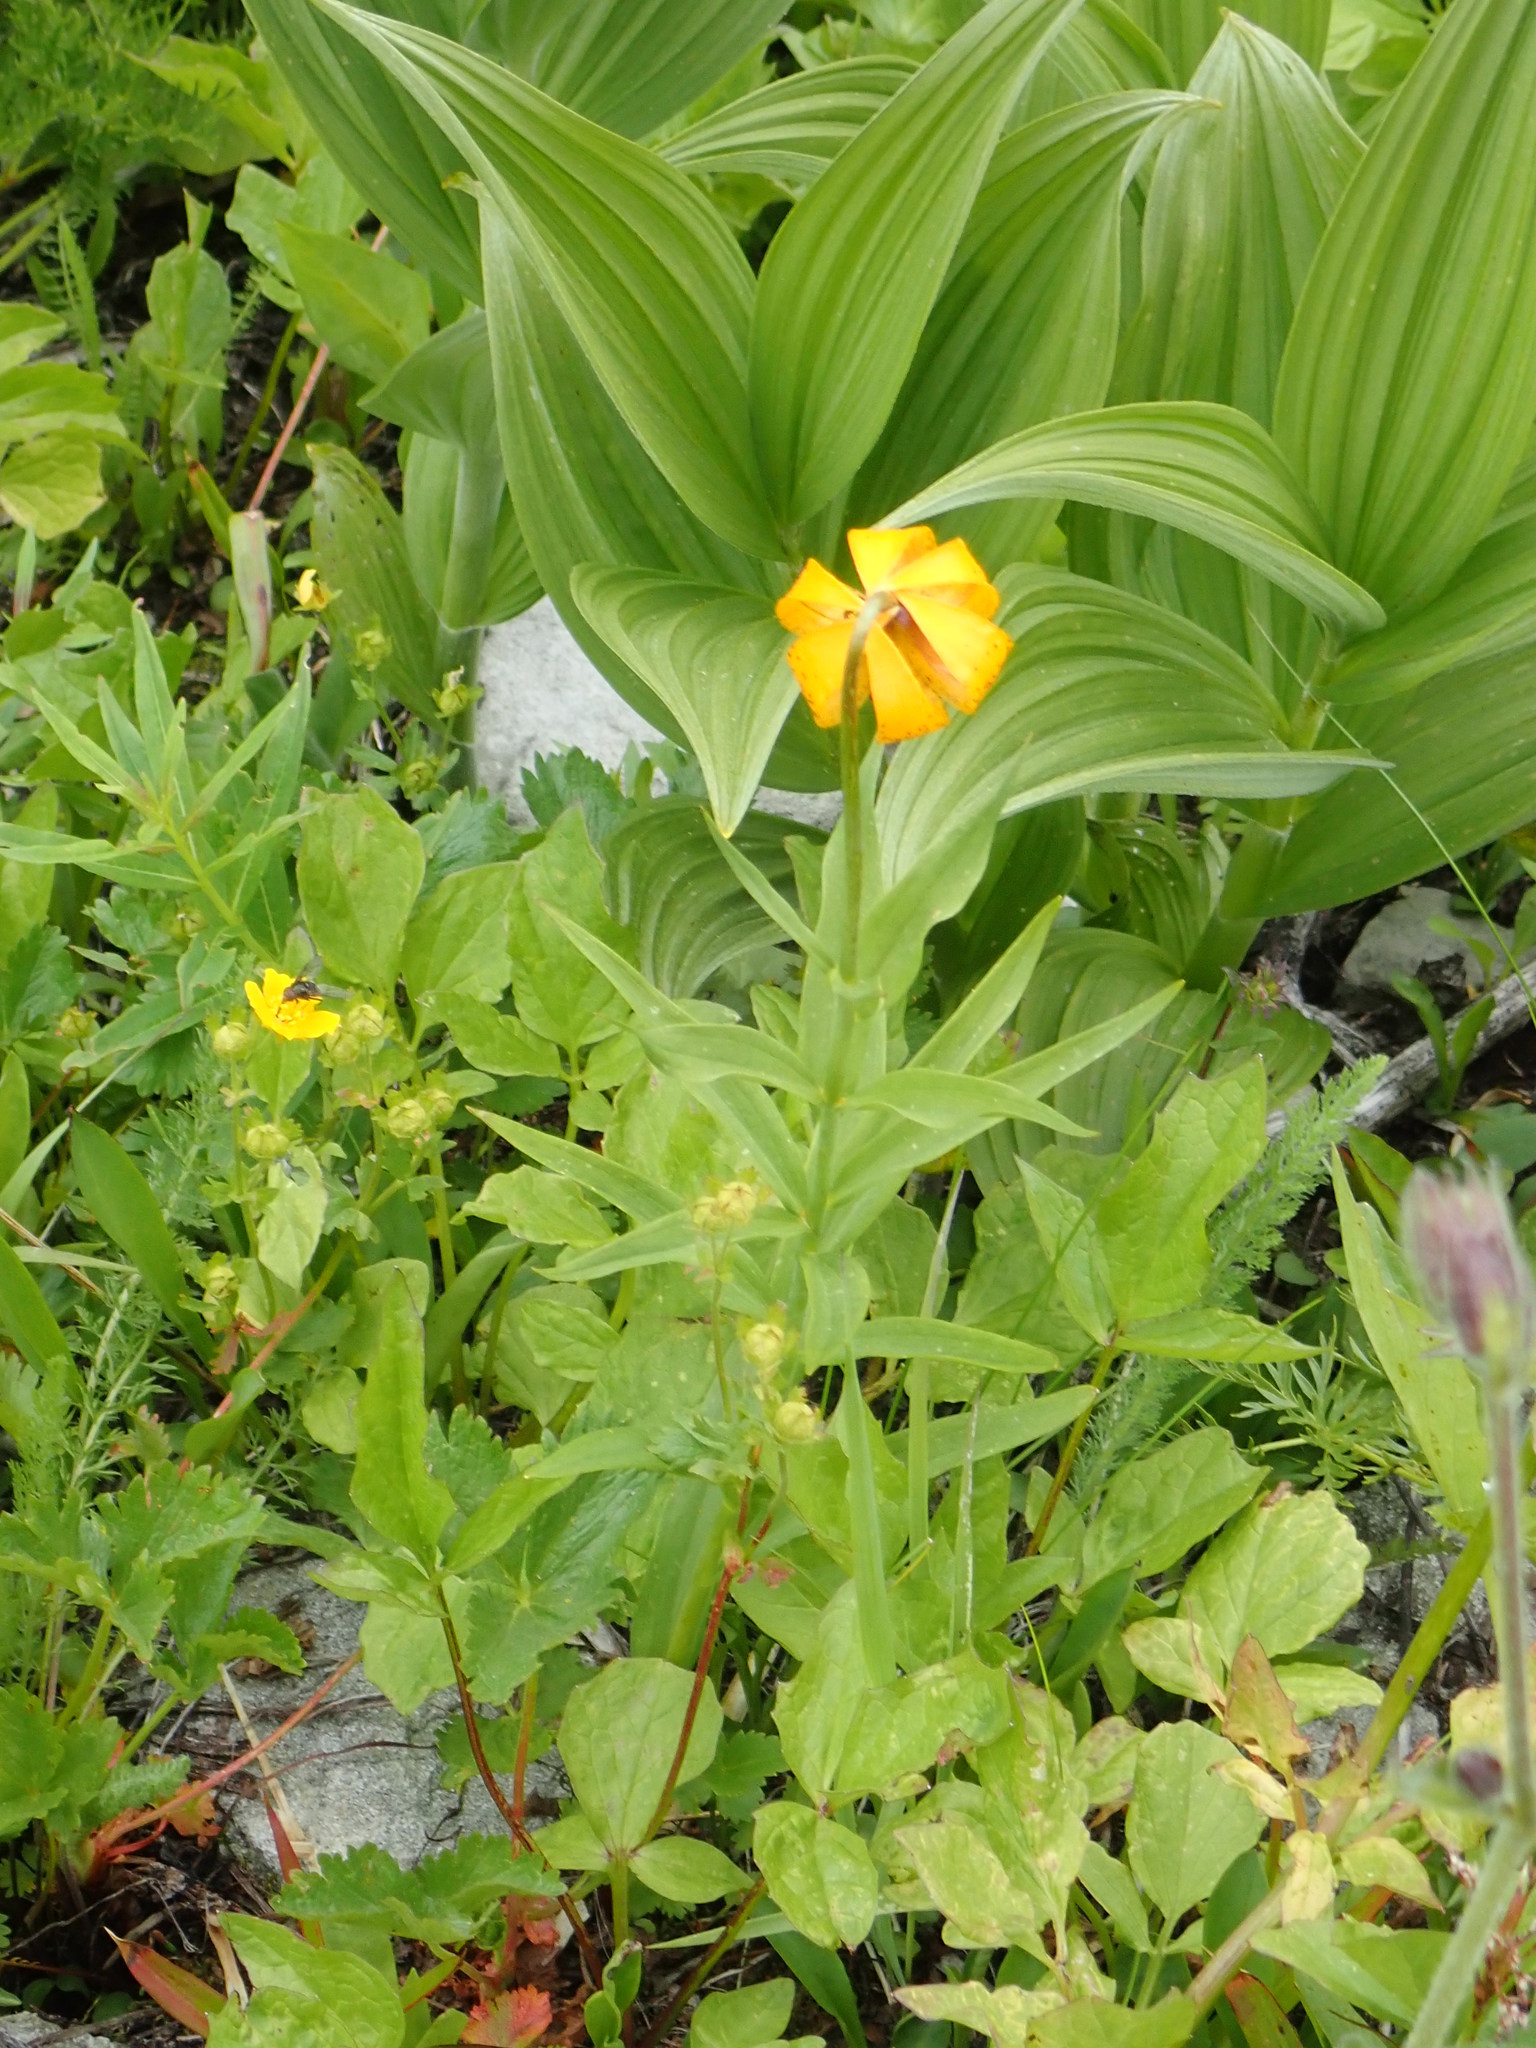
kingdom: Plantae
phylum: Tracheophyta
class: Liliopsida
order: Liliales
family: Liliaceae
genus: Lilium
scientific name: Lilium columbianum
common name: Columbia lily
